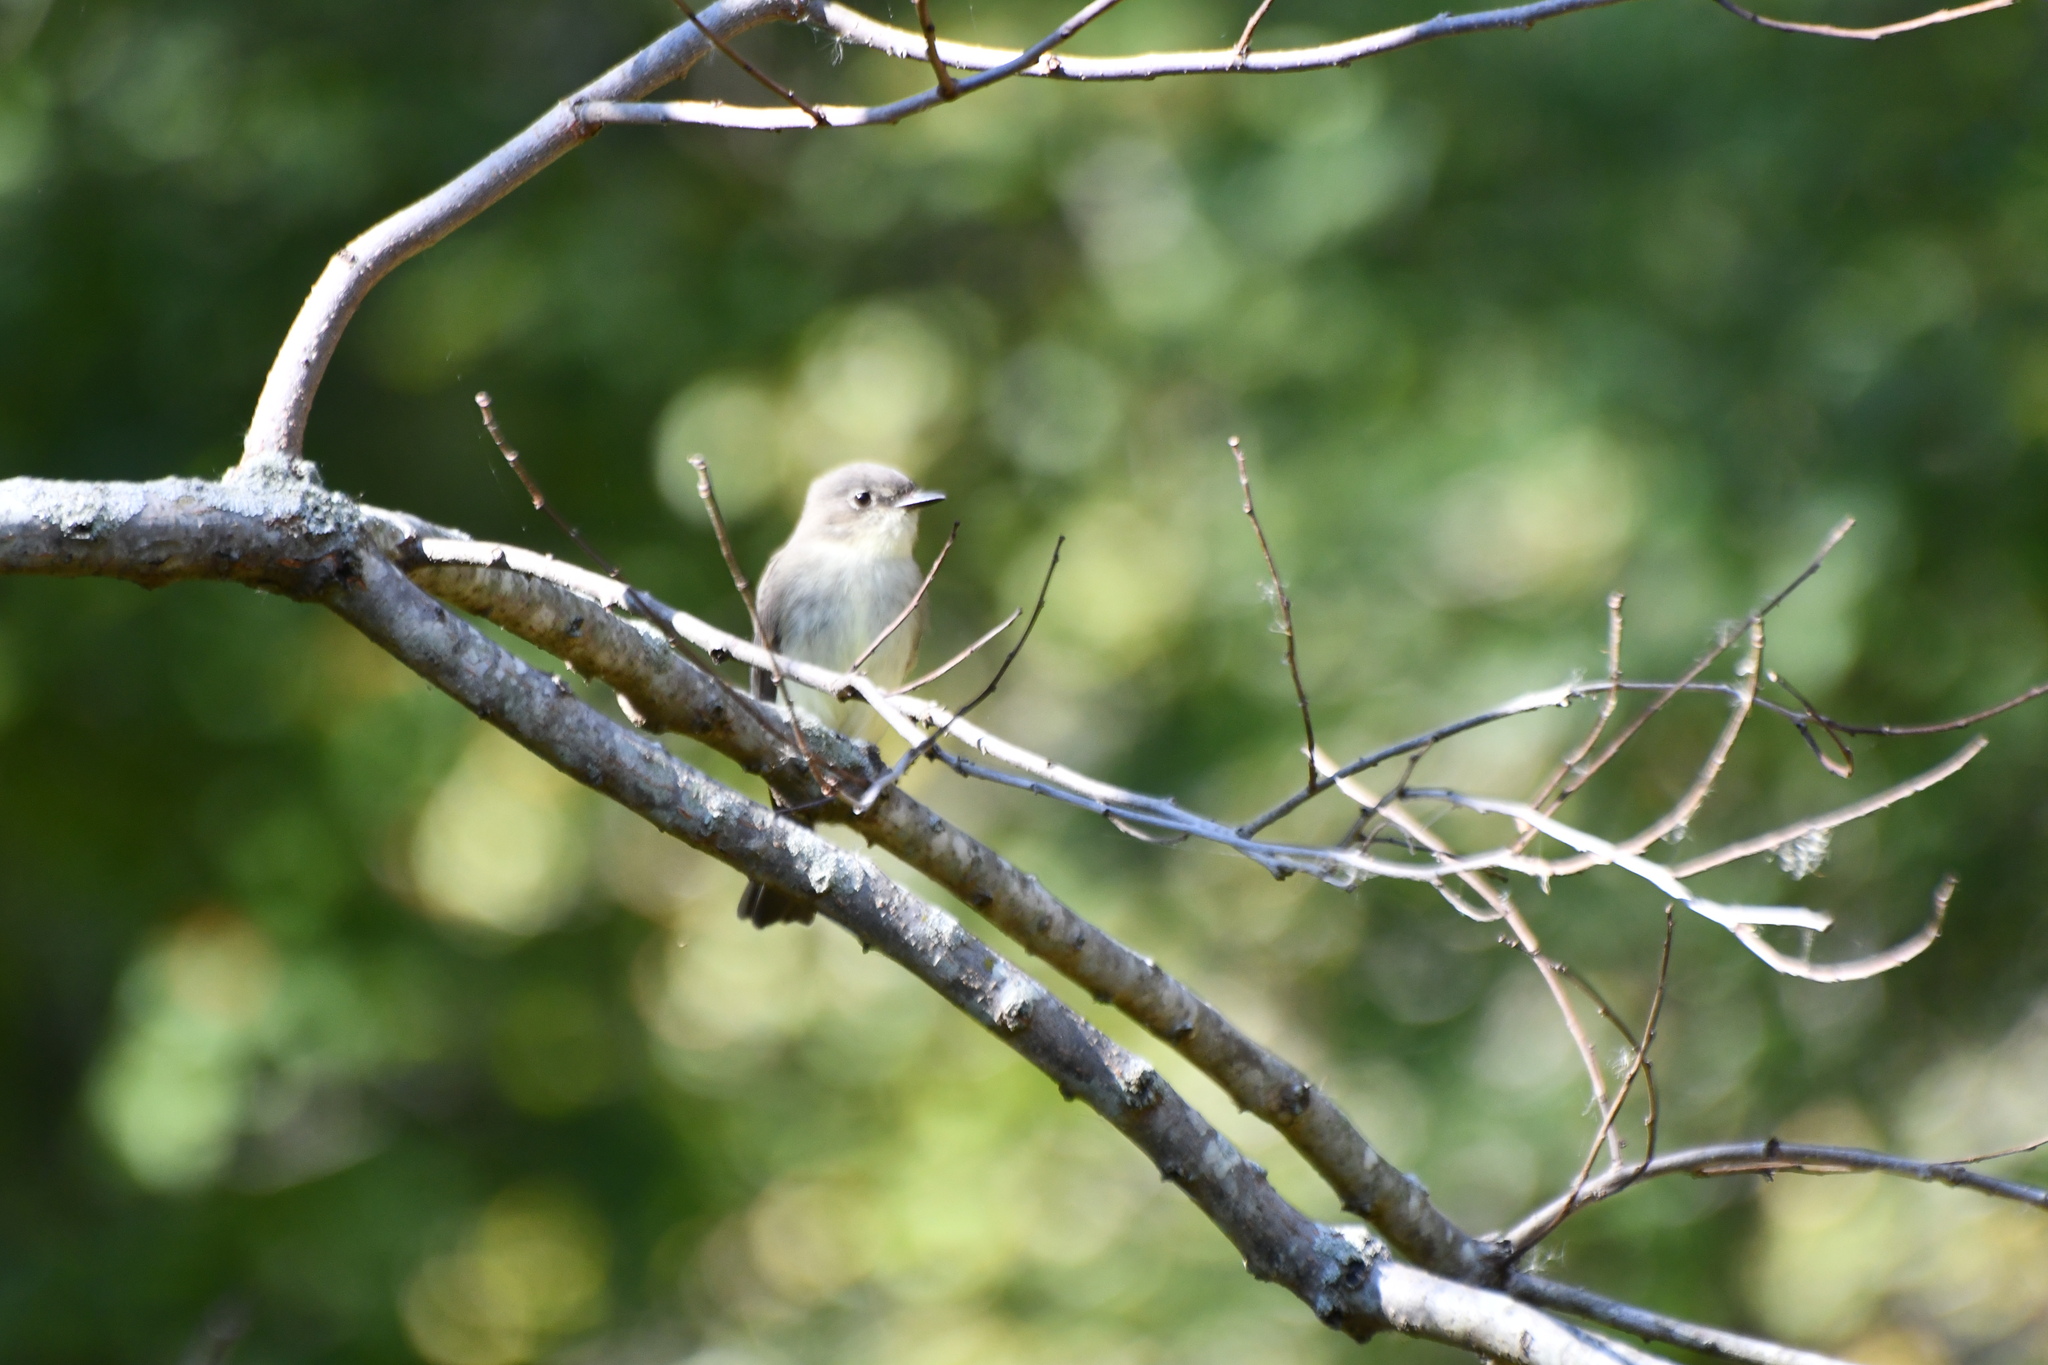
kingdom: Animalia
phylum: Chordata
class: Aves
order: Passeriformes
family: Tyrannidae
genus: Sayornis
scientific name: Sayornis phoebe
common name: Eastern phoebe
